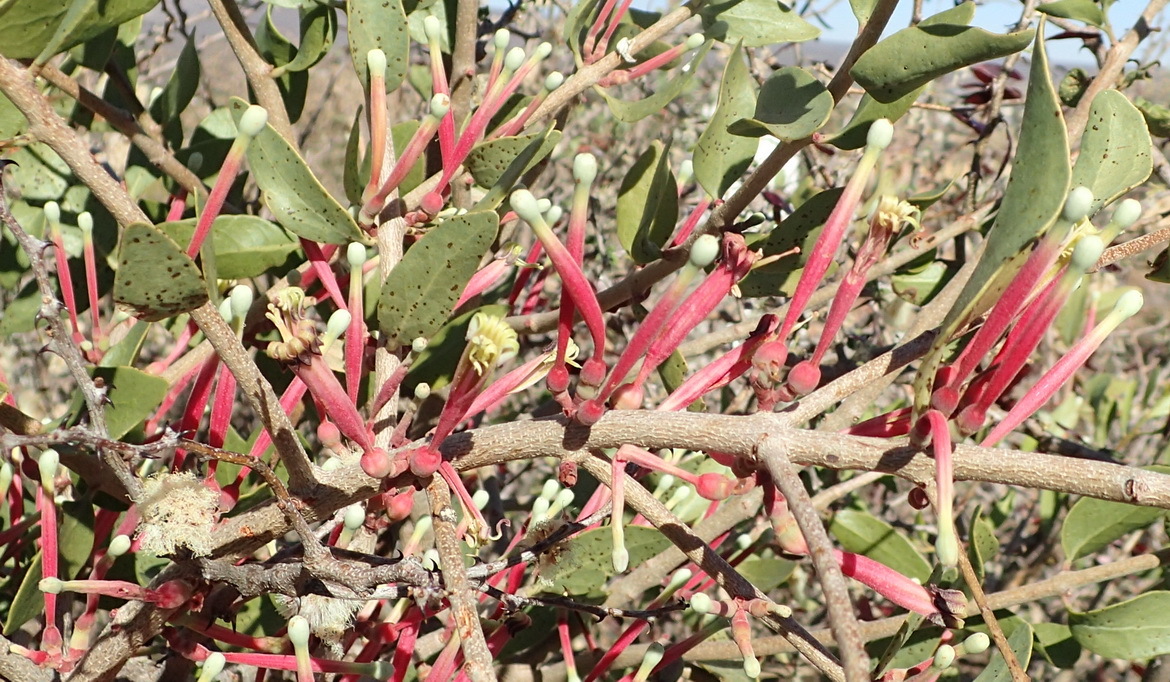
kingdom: Plantae
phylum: Tracheophyta
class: Magnoliopsida
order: Santalales
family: Loranthaceae
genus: Tapinanthus
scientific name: Tapinanthus oleifolius
